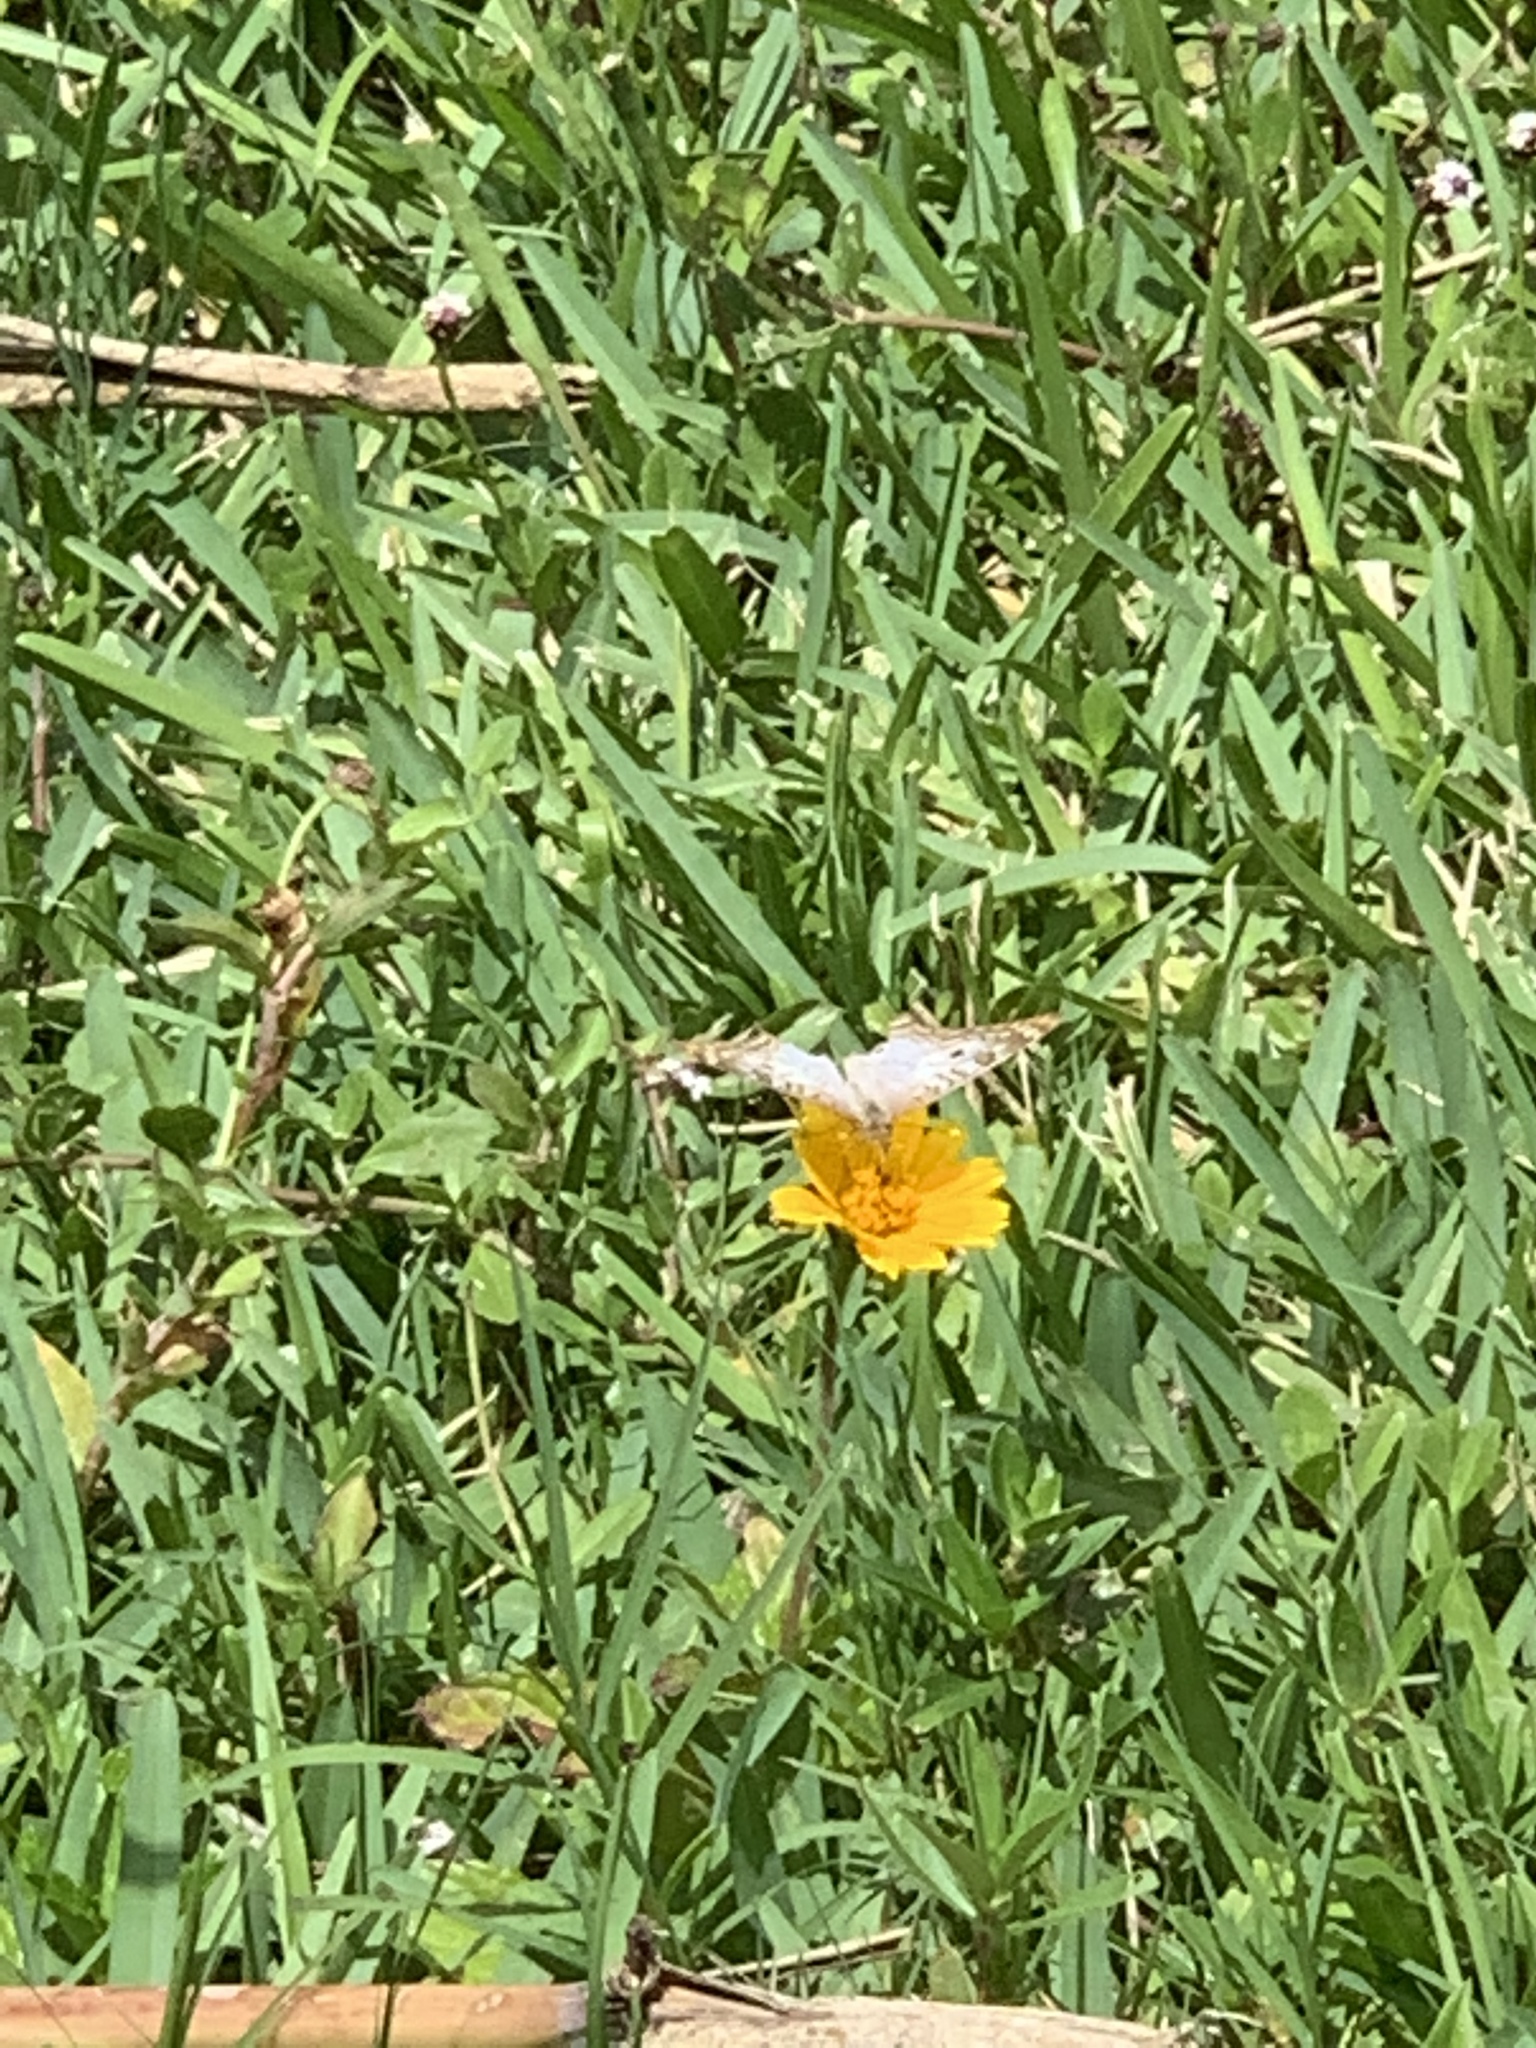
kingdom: Animalia
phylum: Arthropoda
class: Insecta
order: Lepidoptera
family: Nymphalidae
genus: Anartia
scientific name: Anartia jatrophae
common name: White peacock
